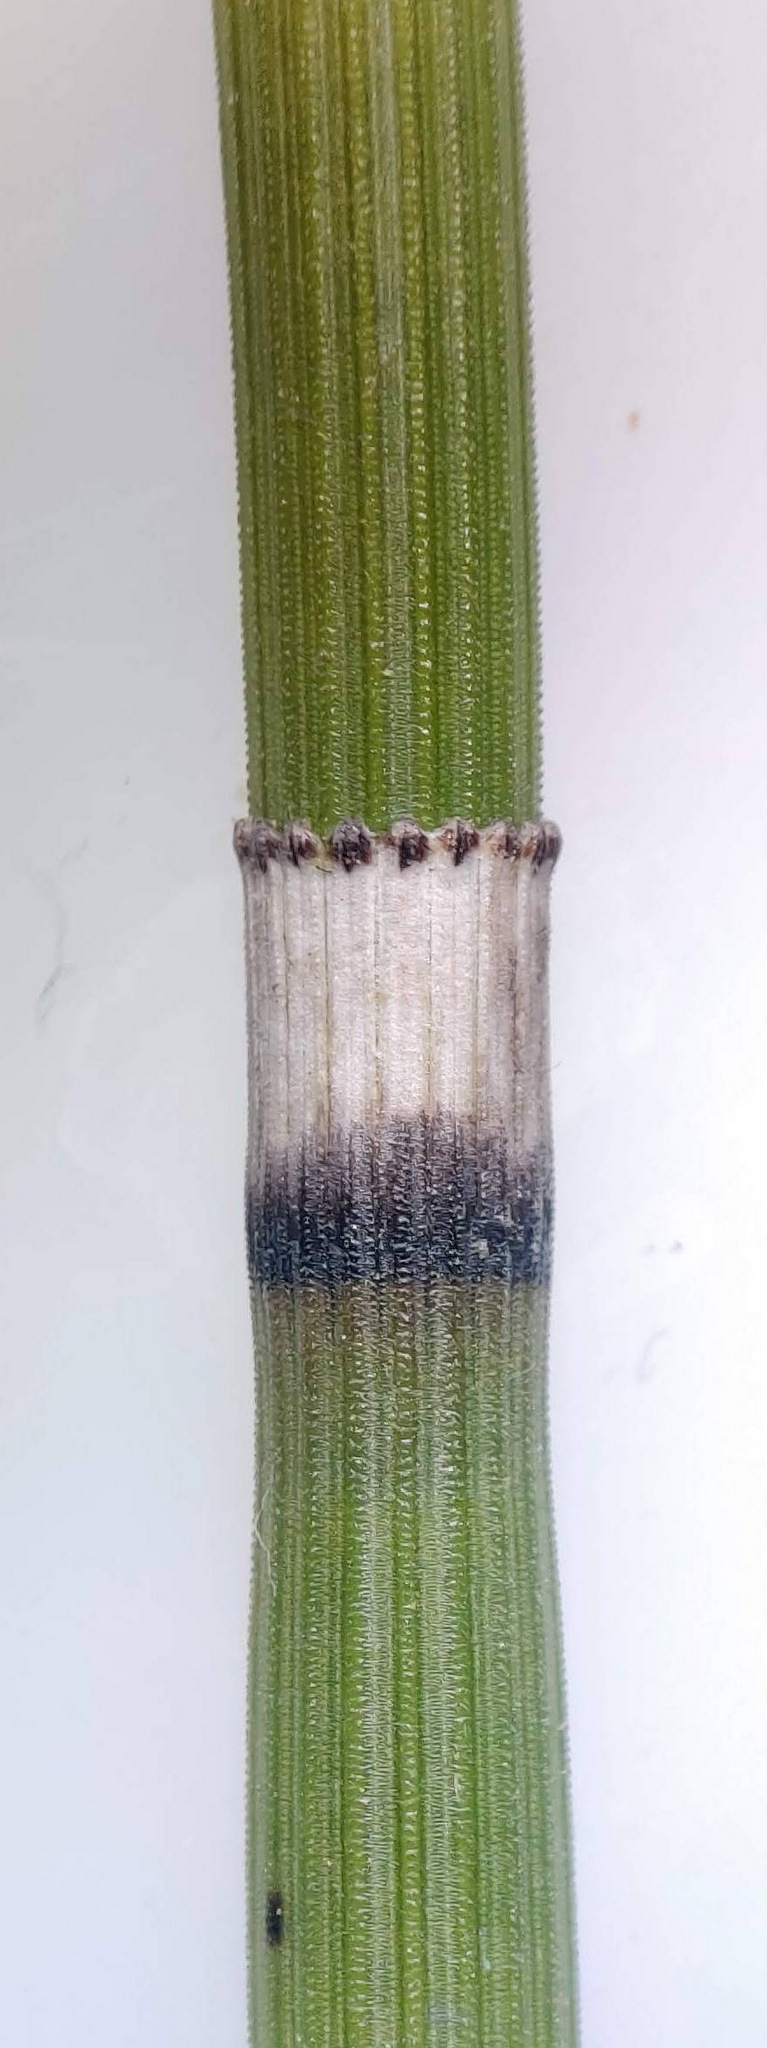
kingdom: Plantae
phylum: Tracheophyta
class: Polypodiopsida
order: Equisetales
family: Equisetaceae
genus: Equisetum
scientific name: Equisetum hyemale
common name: Rough horsetail
